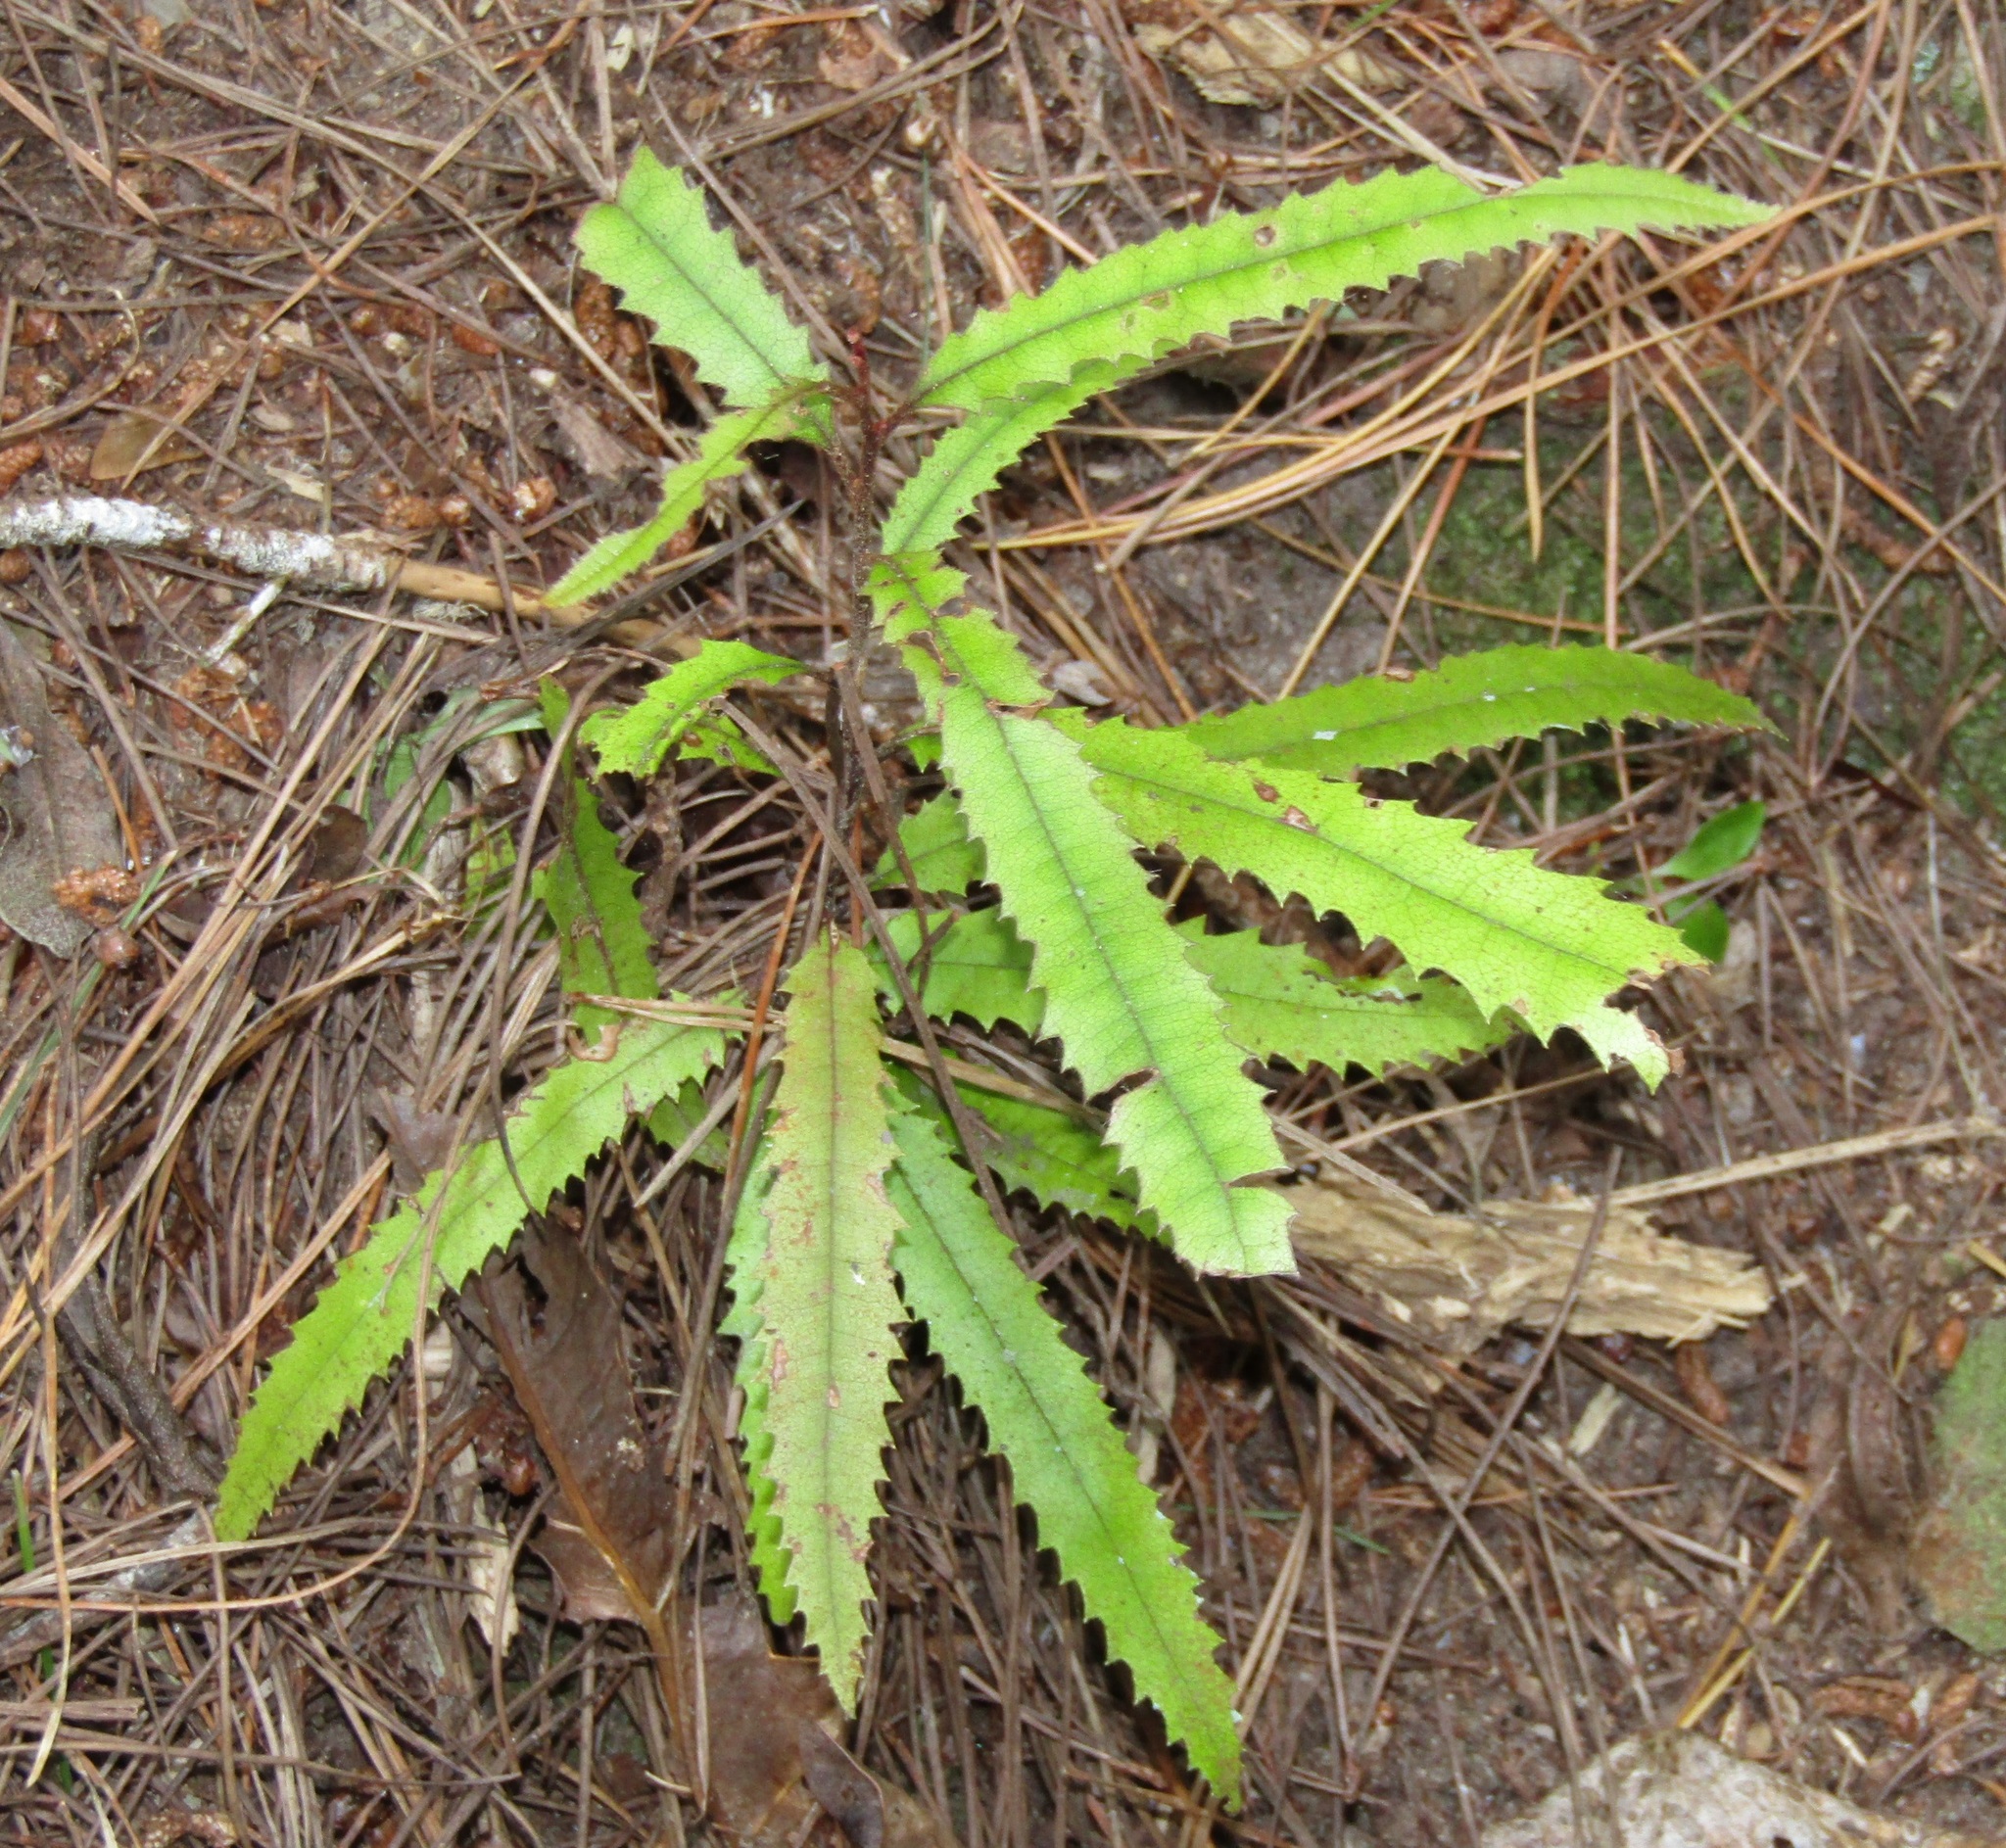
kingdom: Plantae
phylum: Tracheophyta
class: Magnoliopsida
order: Proteales
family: Proteaceae
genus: Knightia
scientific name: Knightia excelsa
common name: New zealand-honeysuckle
